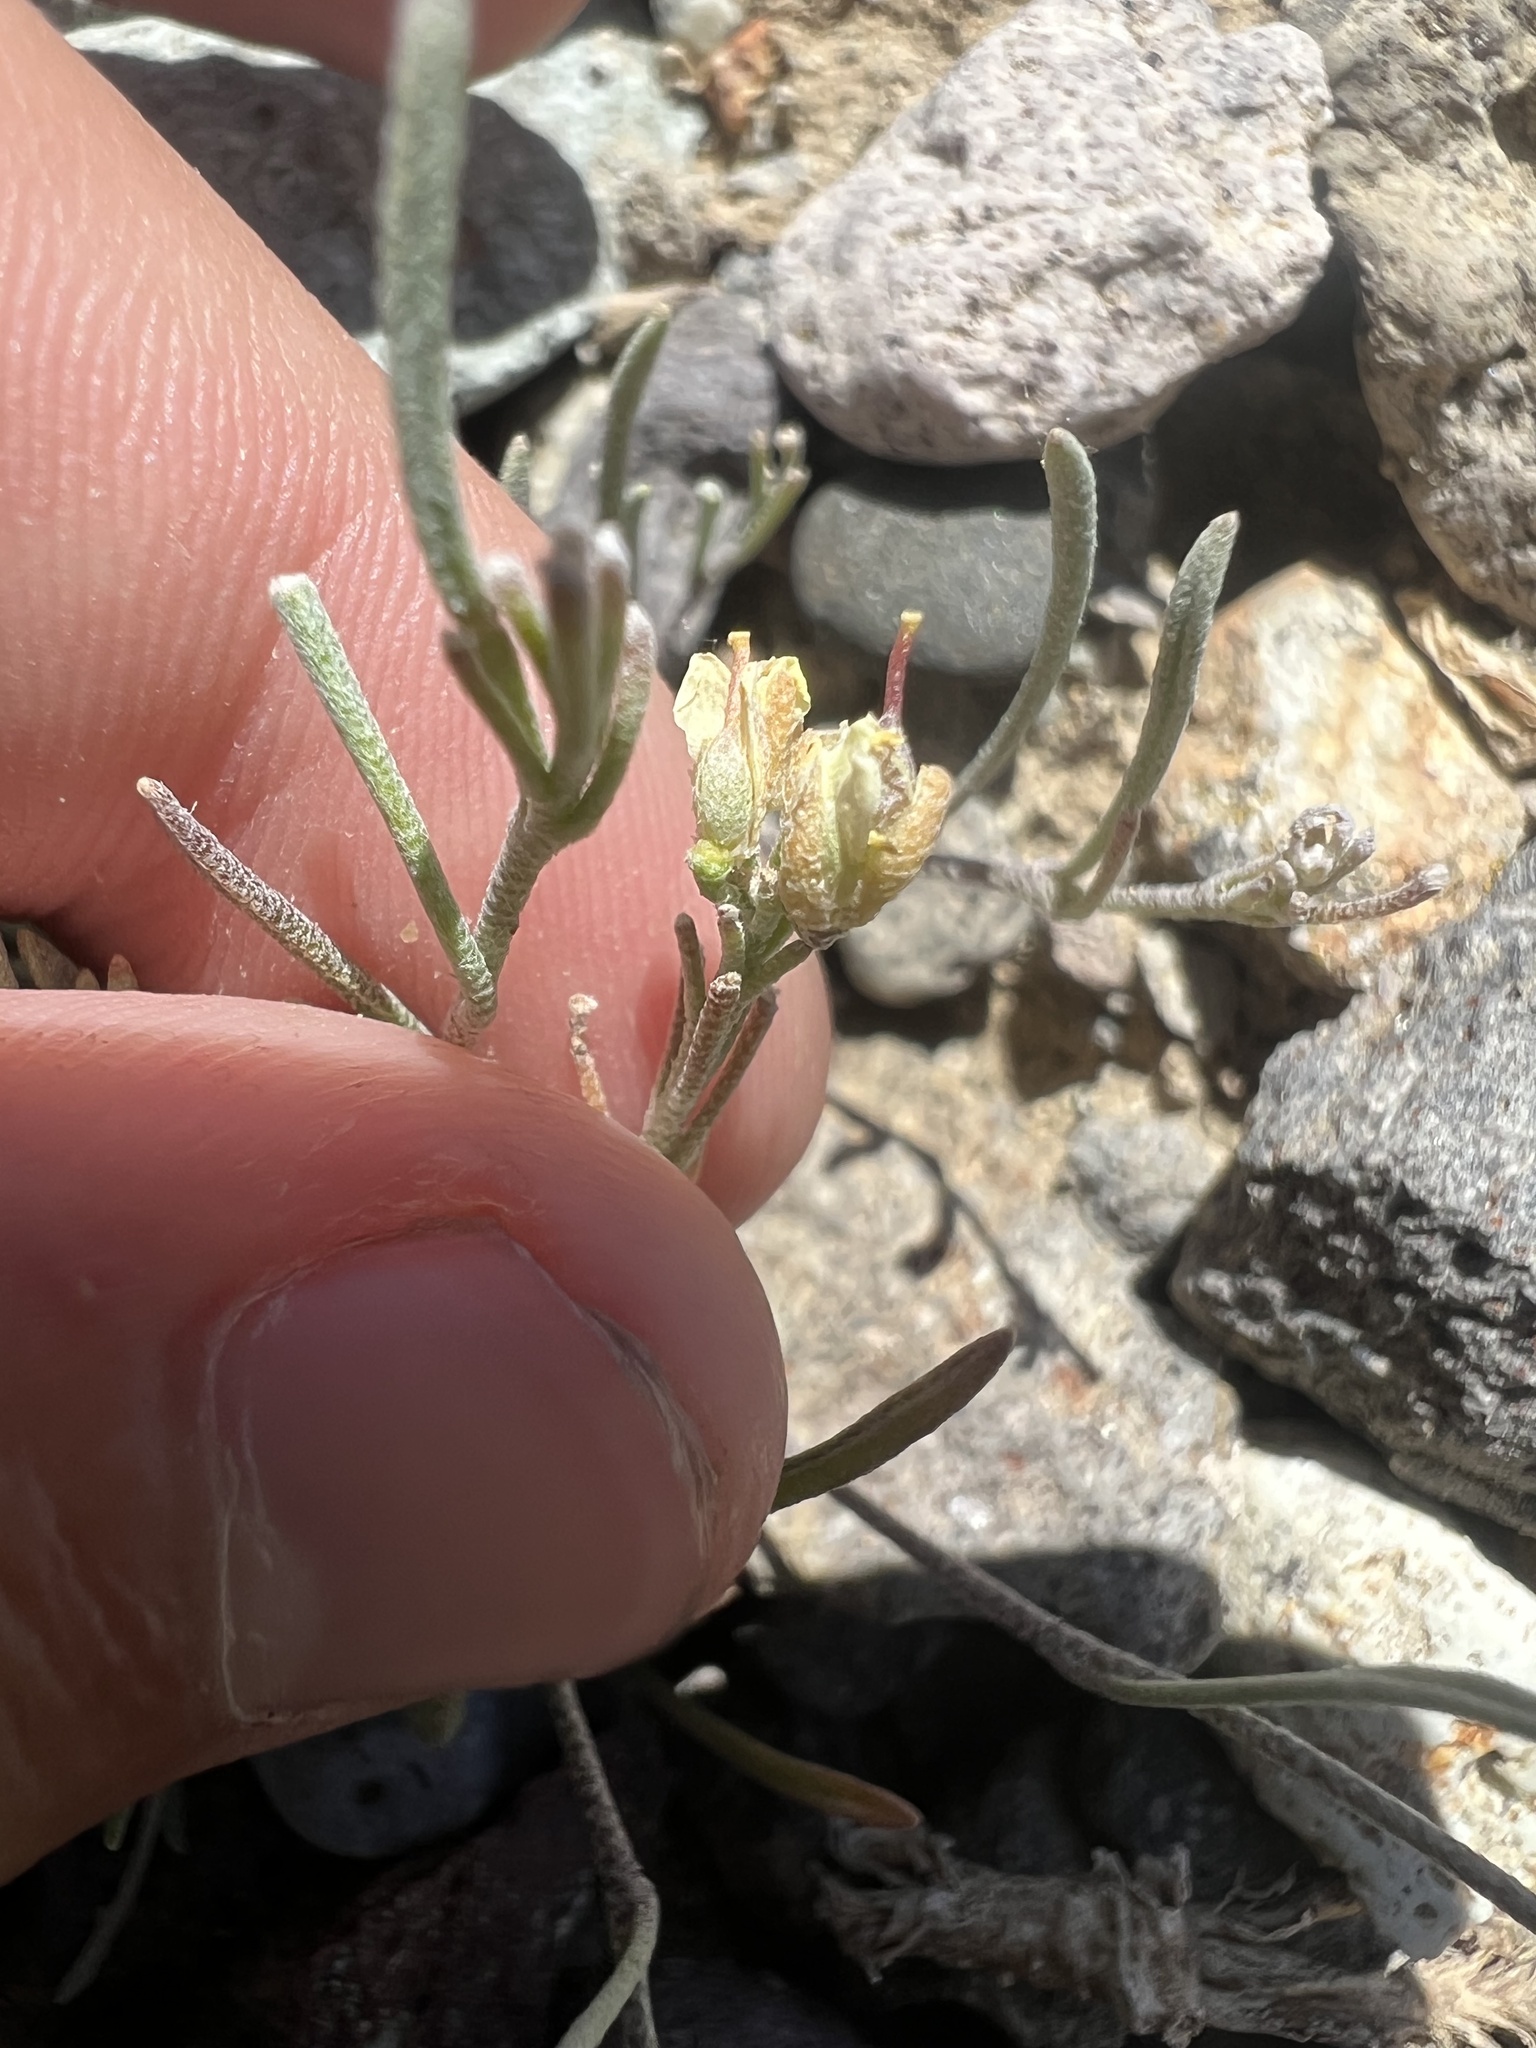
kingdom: Plantae
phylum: Tracheophyta
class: Magnoliopsida
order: Brassicales
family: Brassicaceae
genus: Physaria
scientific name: Physaria parvula
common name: Pygmy bladderpod
